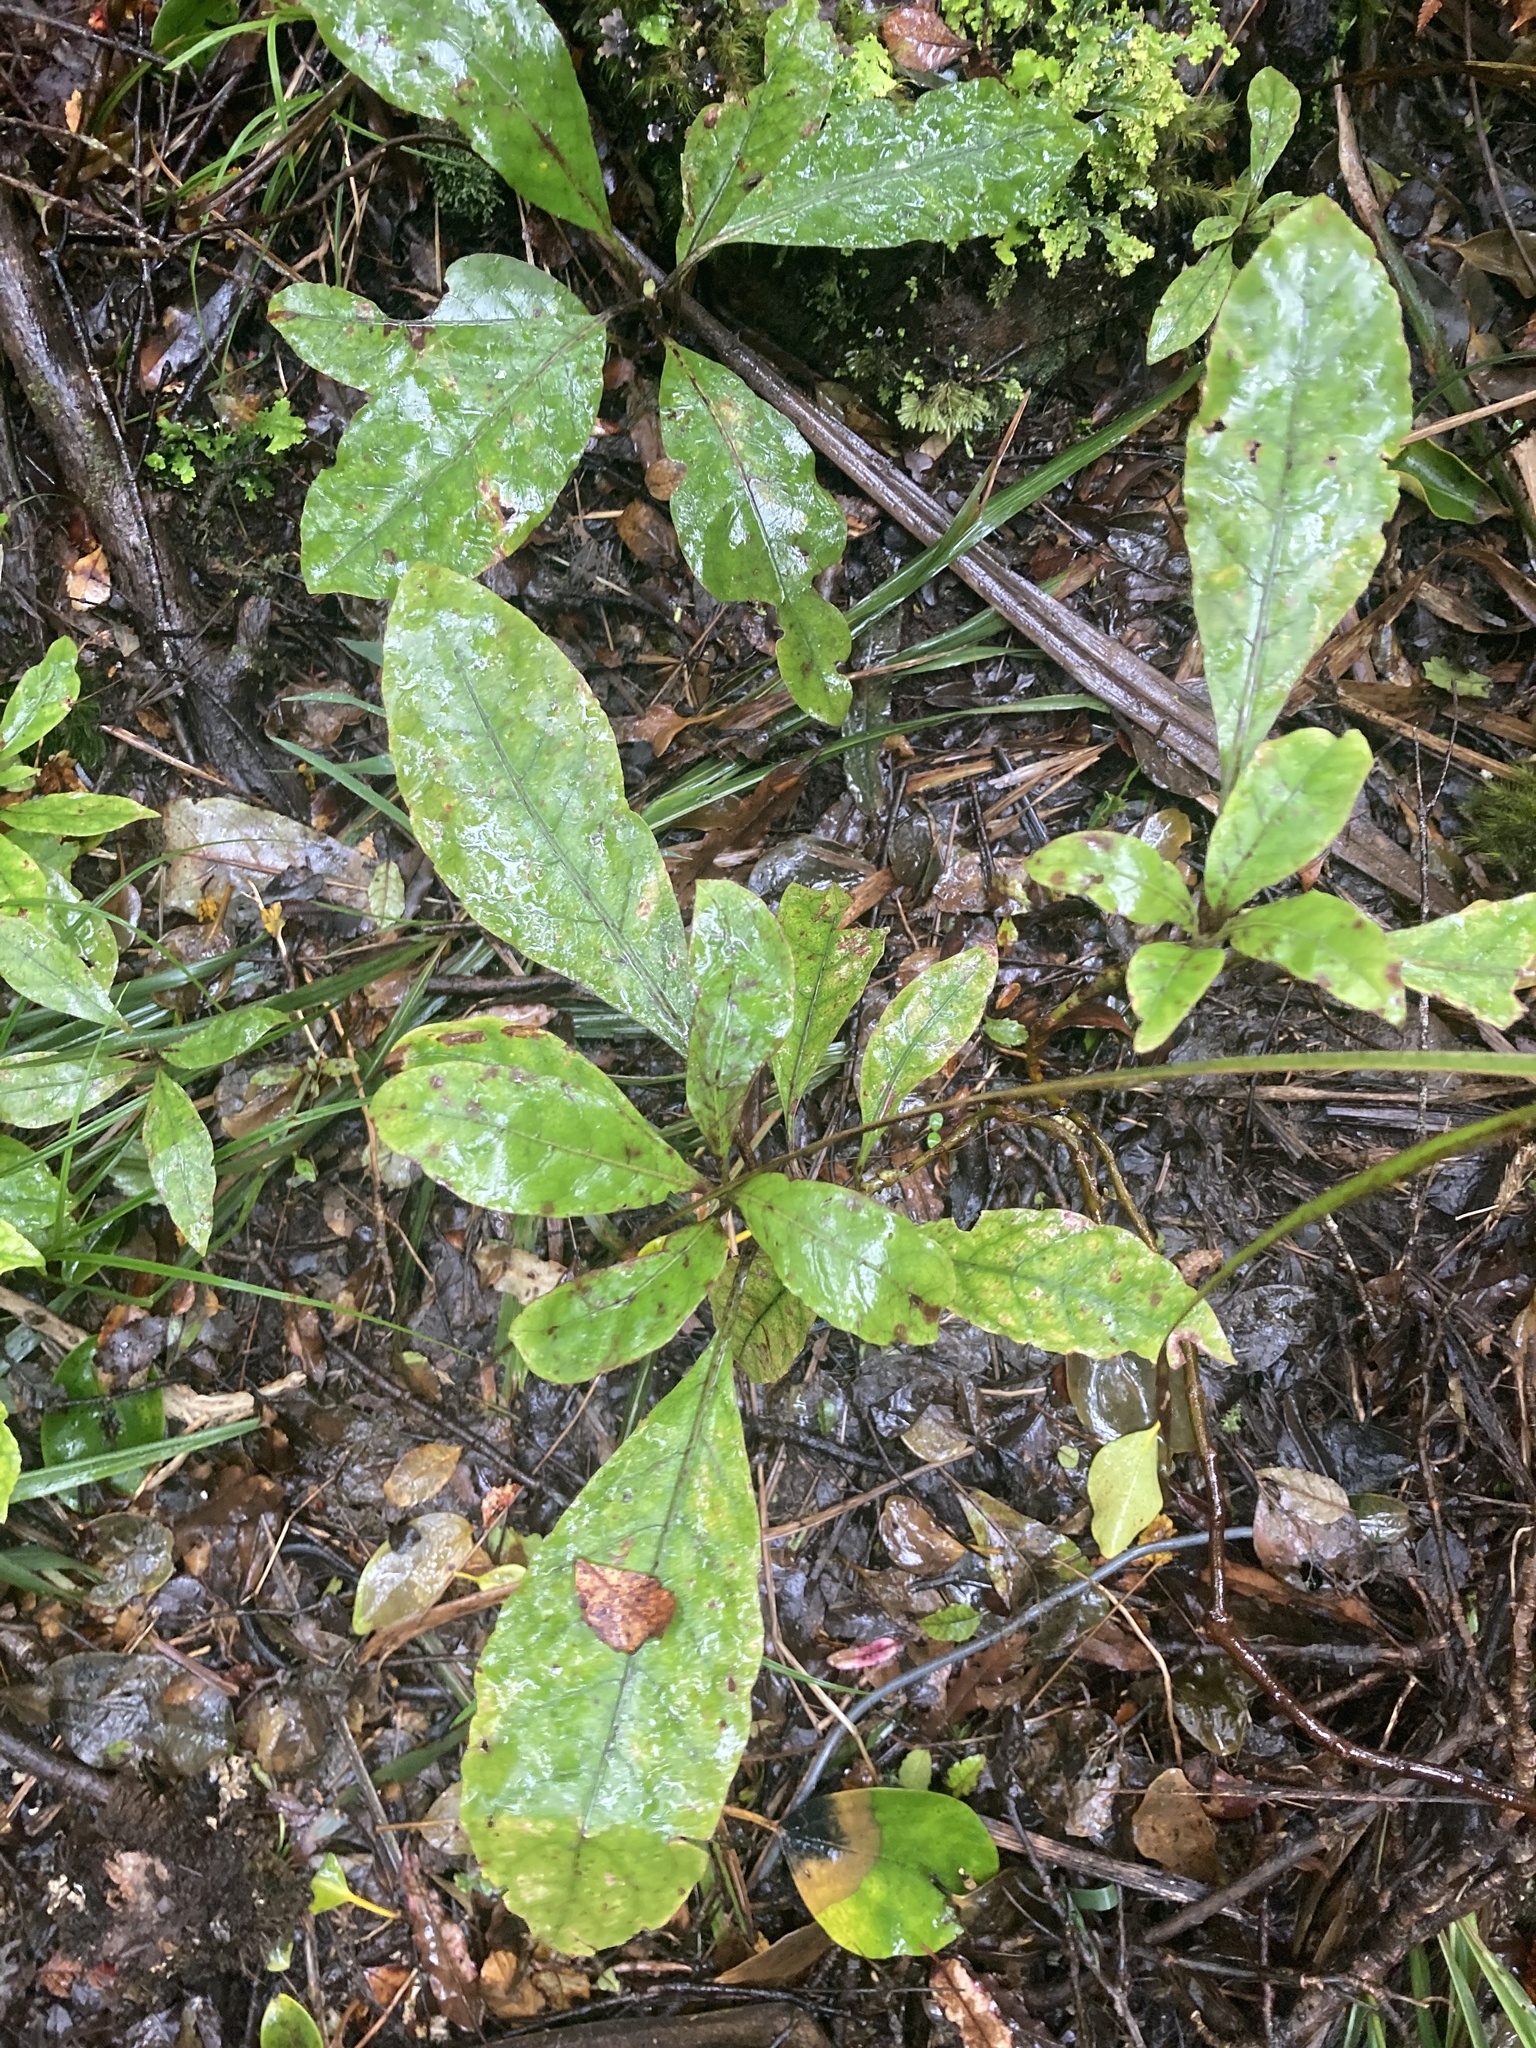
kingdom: Plantae
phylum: Tracheophyta
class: Magnoliopsida
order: Gentianales
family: Rubiaceae
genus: Coprosma
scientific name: Coprosma autumnalis
